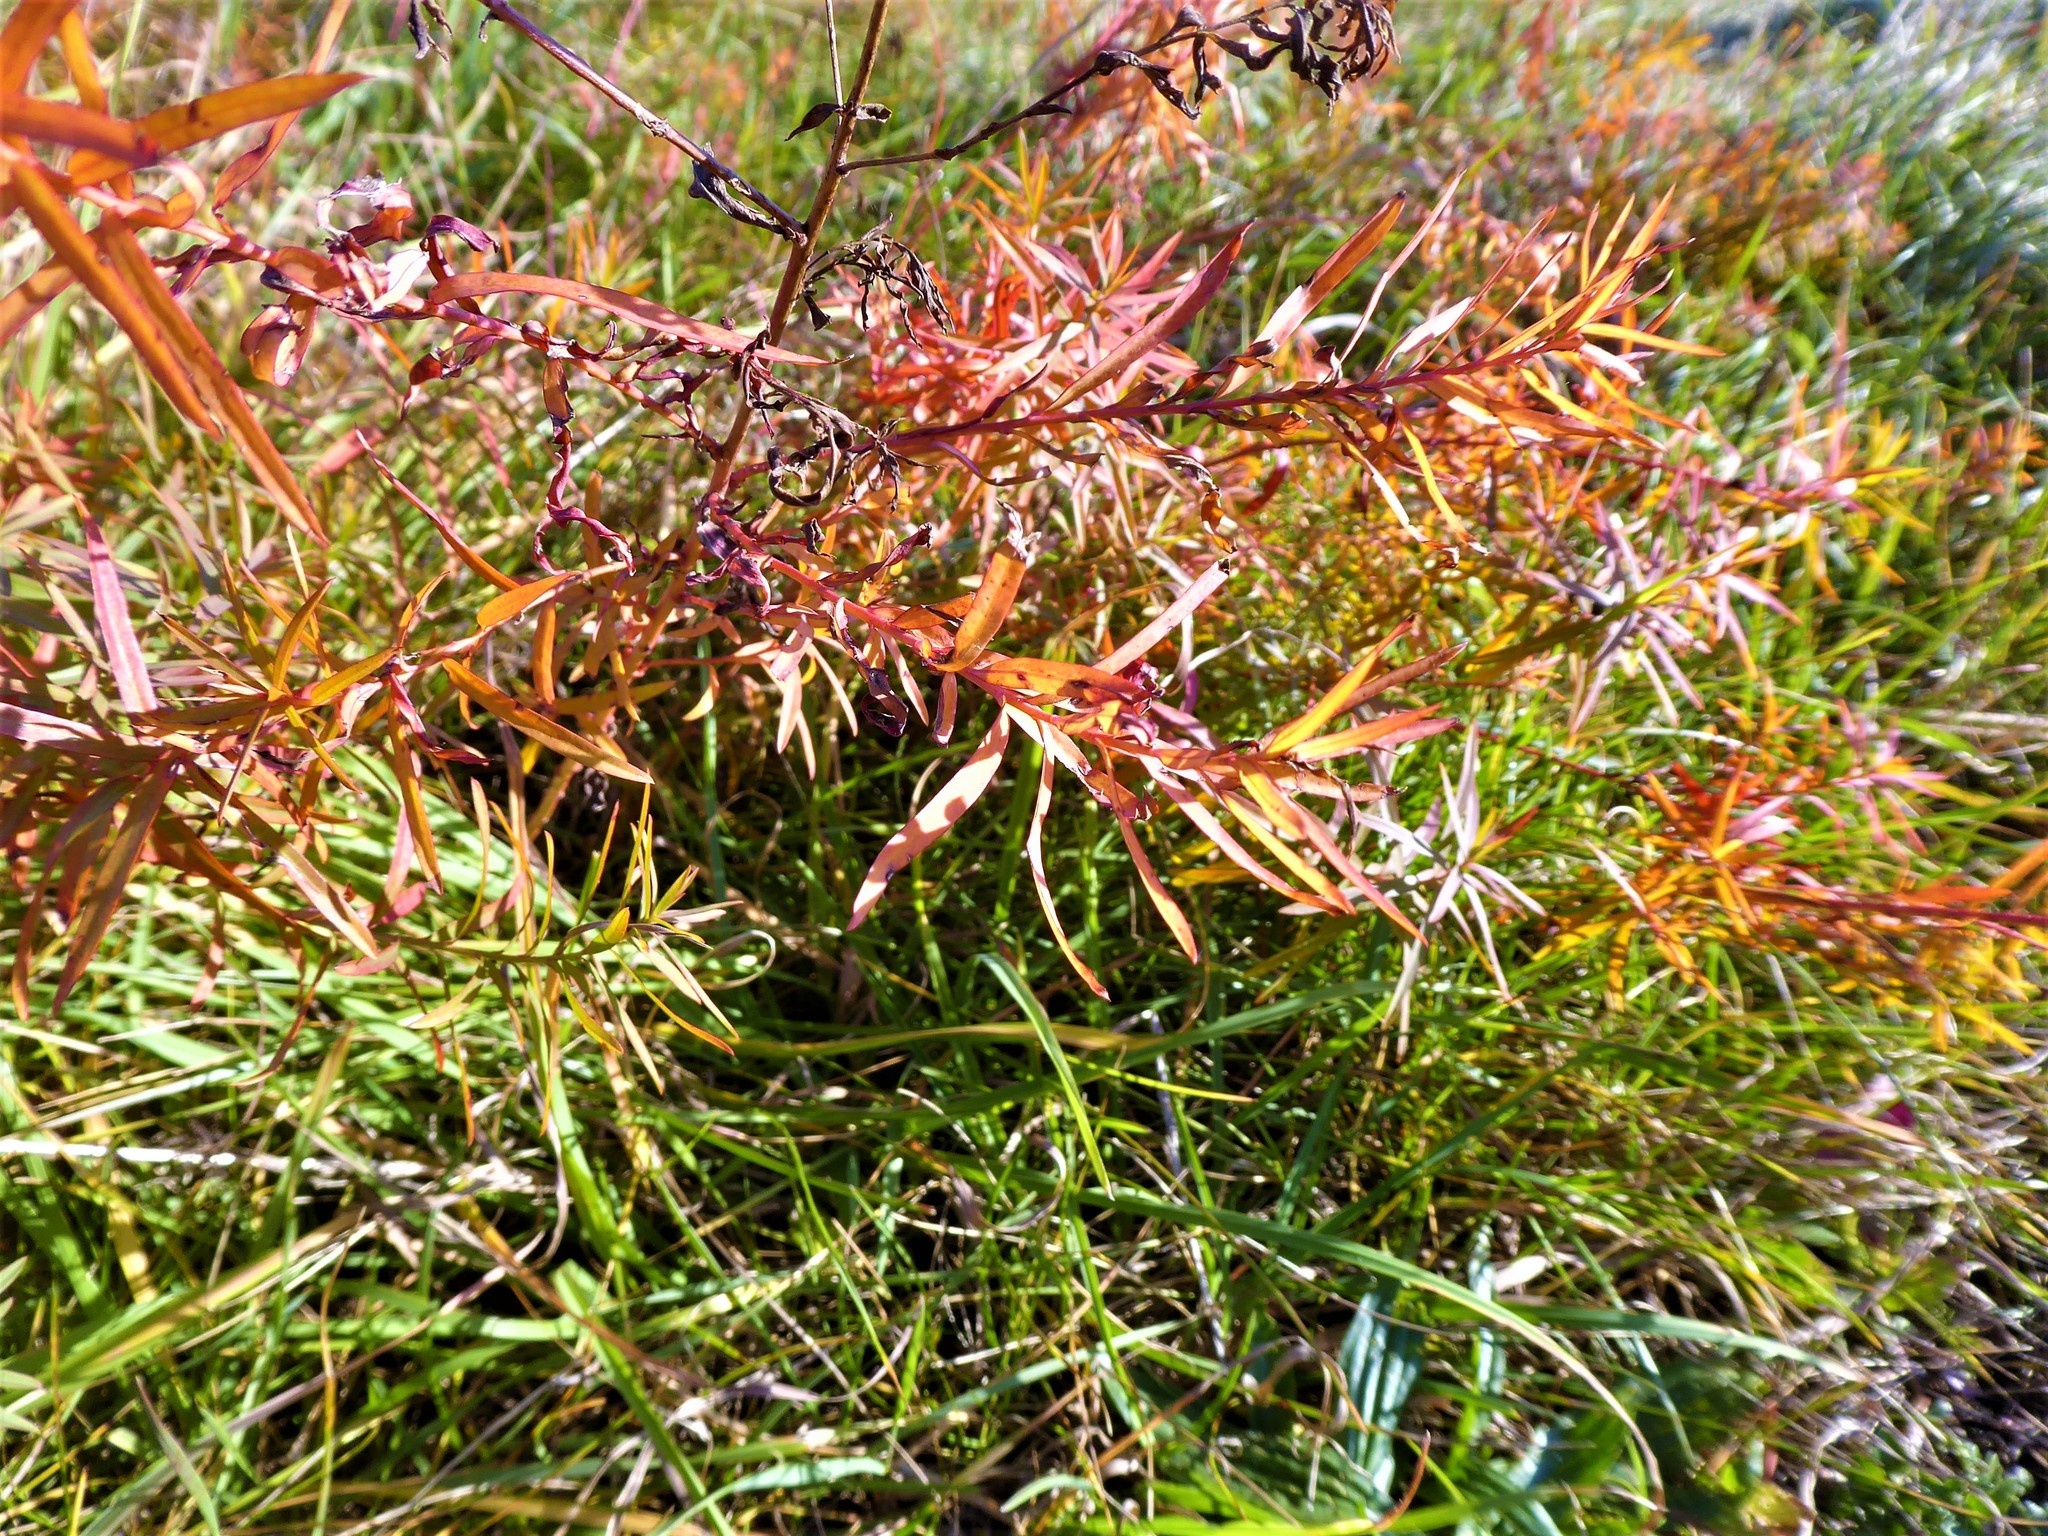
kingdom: Plantae
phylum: Tracheophyta
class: Magnoliopsida
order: Malpighiales
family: Euphorbiaceae
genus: Euphorbia
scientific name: Euphorbia saratoi
